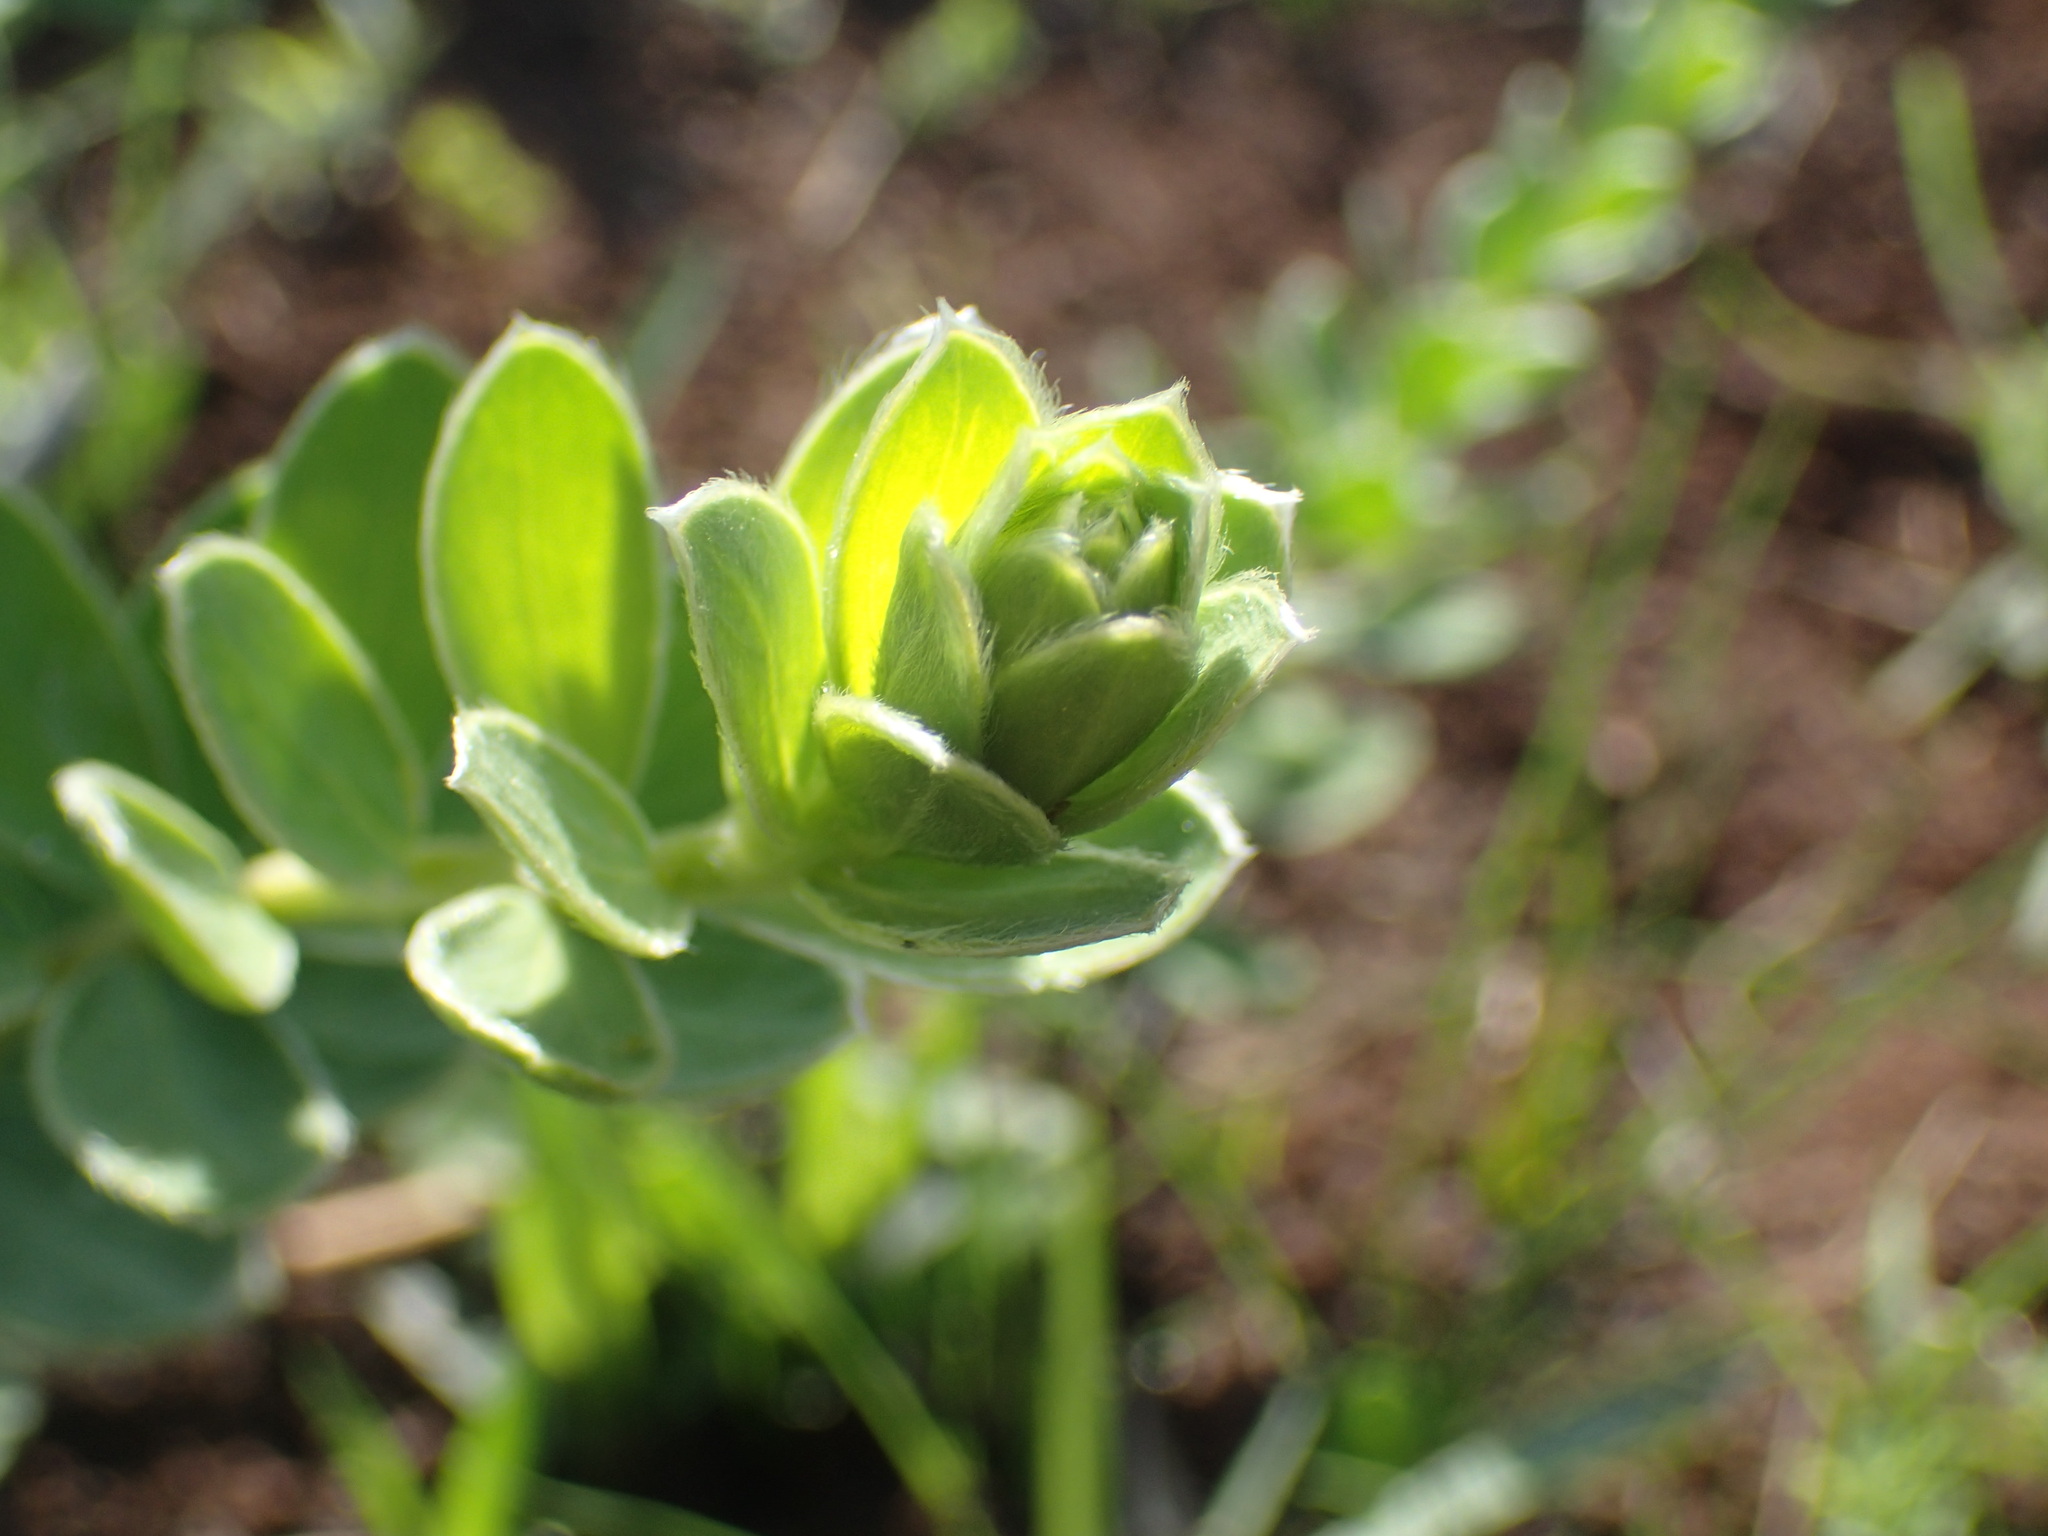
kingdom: Plantae
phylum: Tracheophyta
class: Magnoliopsida
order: Malvales
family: Thymelaeaceae
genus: Gnidia
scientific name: Gnidia kraussiana
